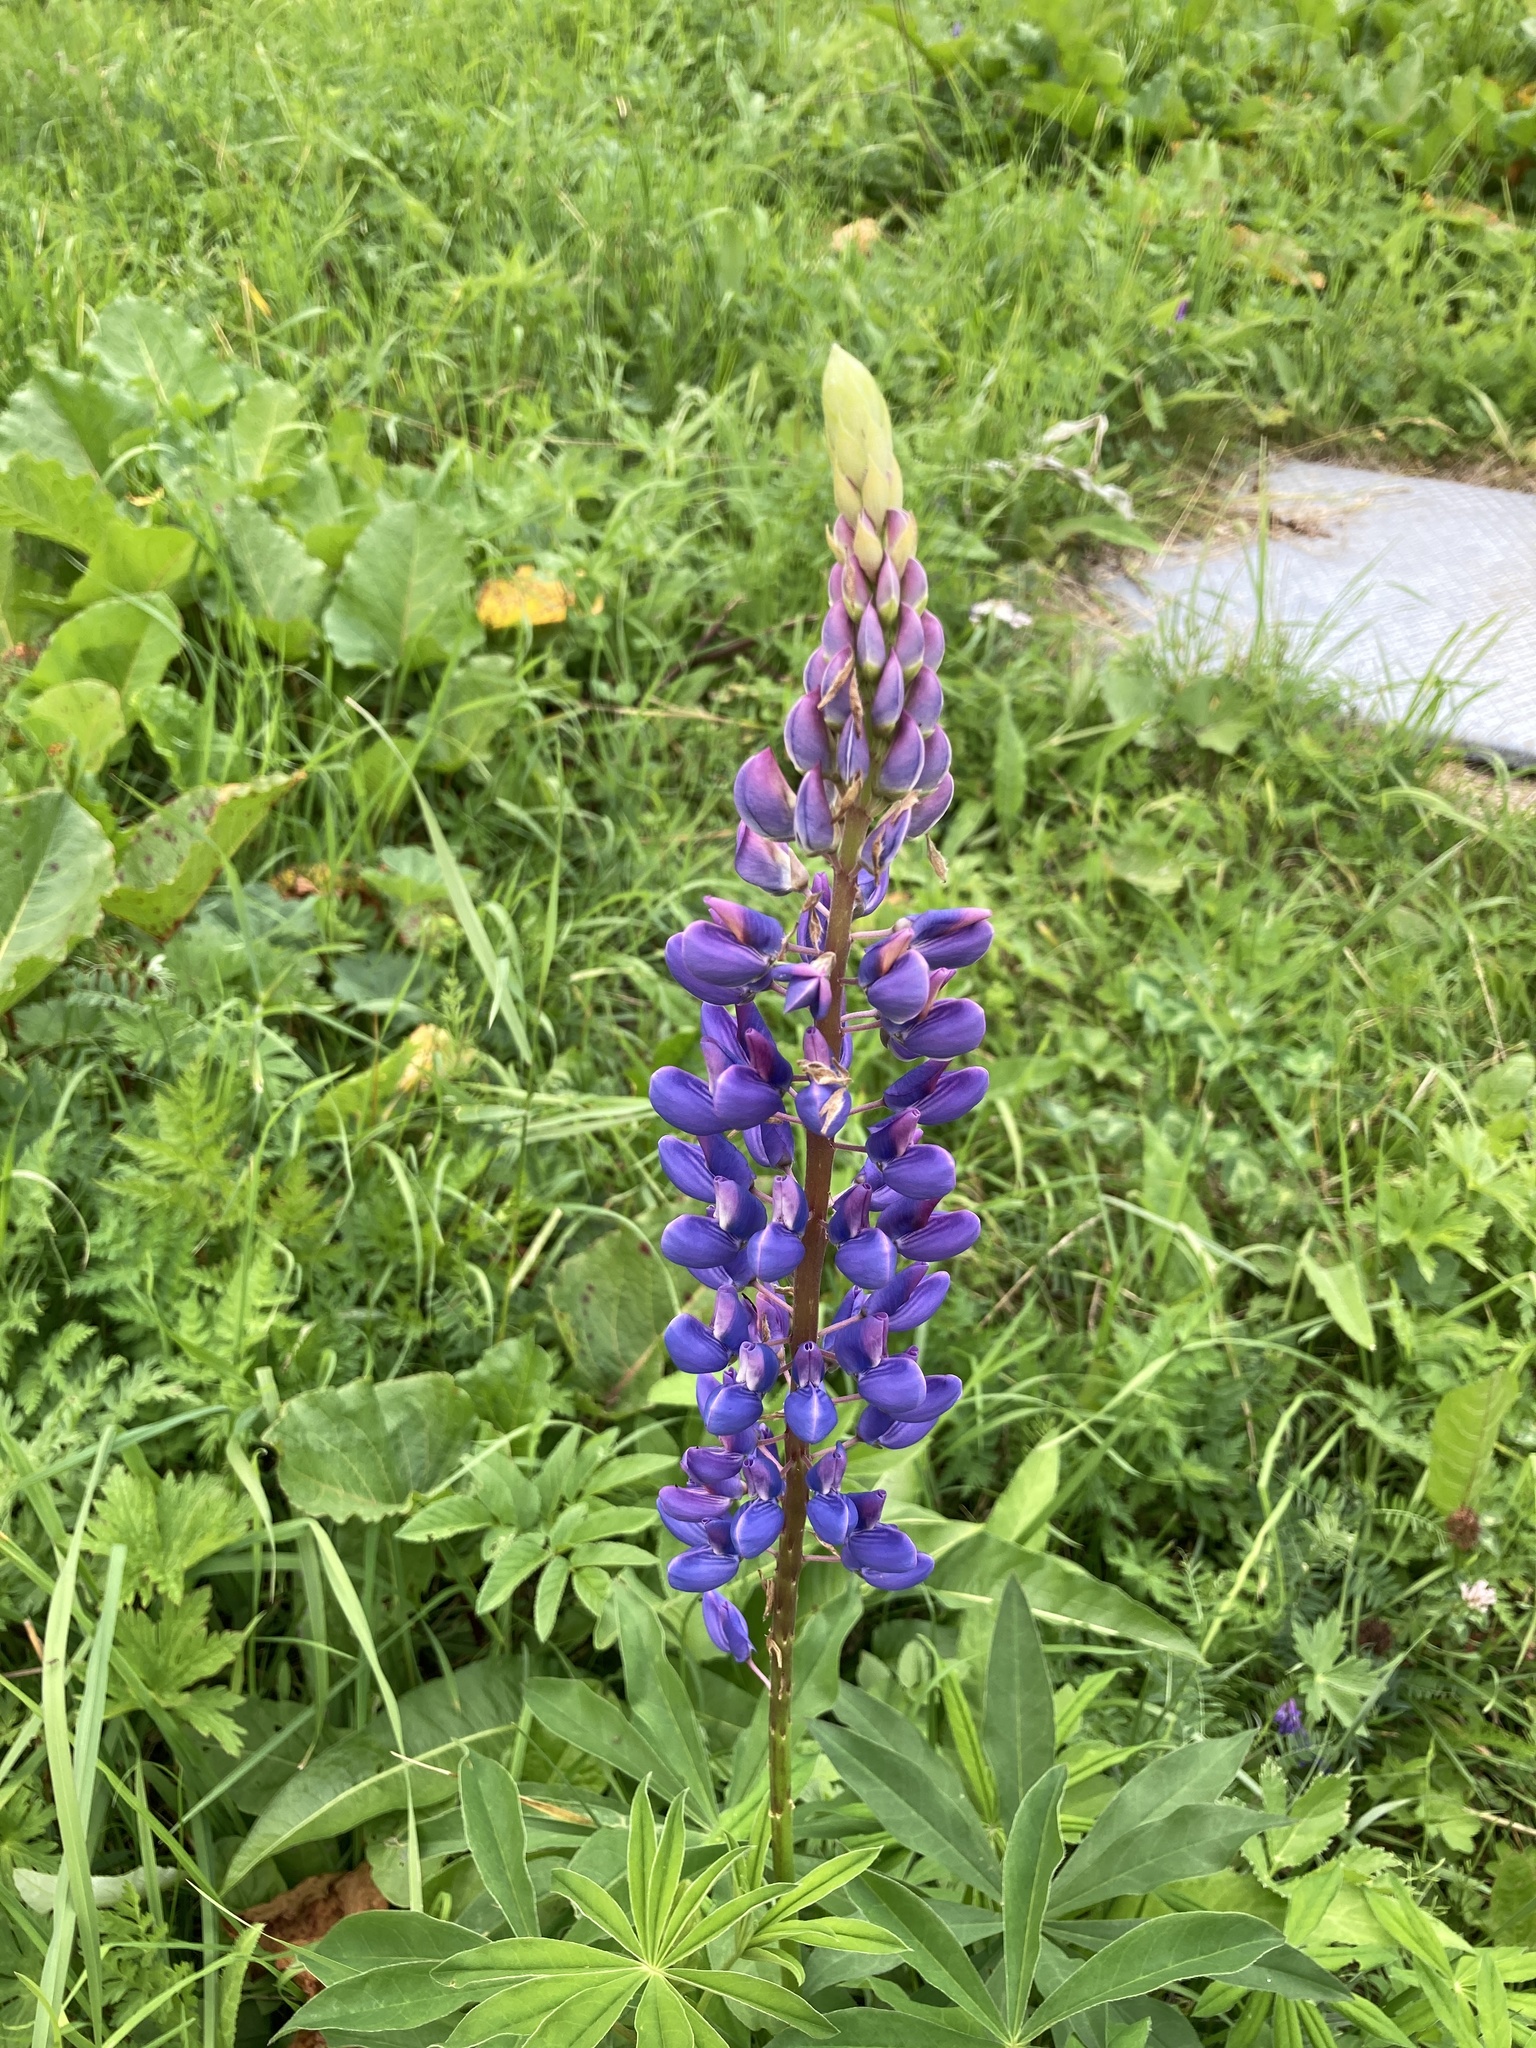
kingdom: Plantae
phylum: Tracheophyta
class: Magnoliopsida
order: Fabales
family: Fabaceae
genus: Lupinus
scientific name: Lupinus polyphyllus
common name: Garden lupin
